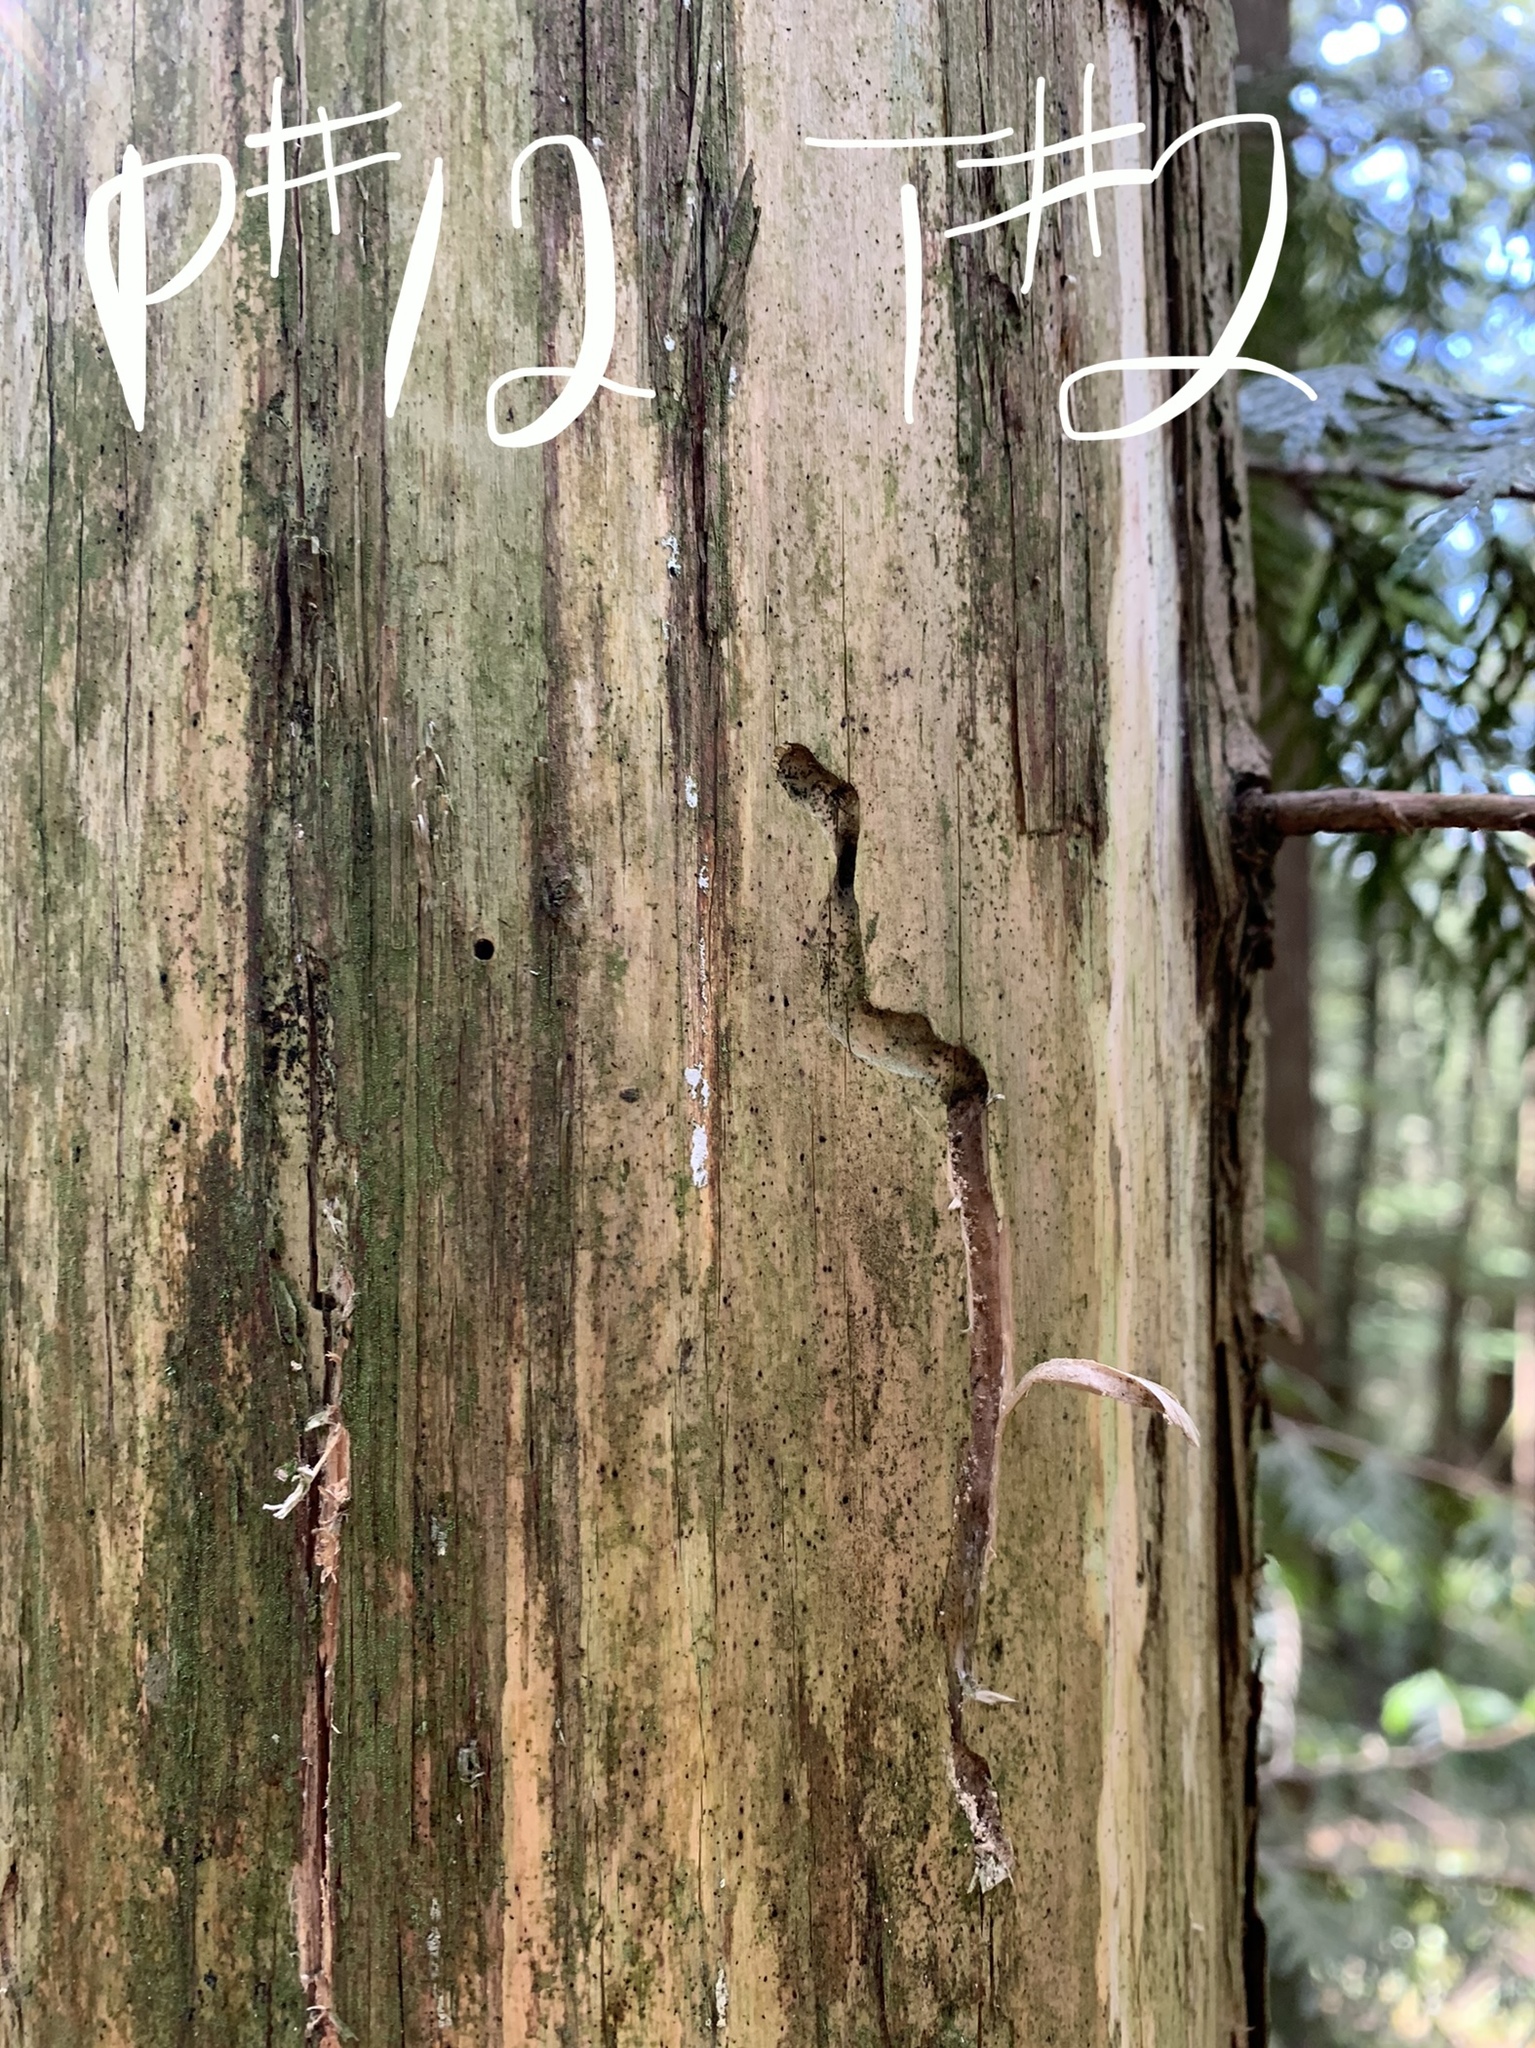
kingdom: Plantae
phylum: Tracheophyta
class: Pinopsida
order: Pinales
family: Cupressaceae
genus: Thuja
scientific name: Thuja plicata
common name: Western red-cedar
